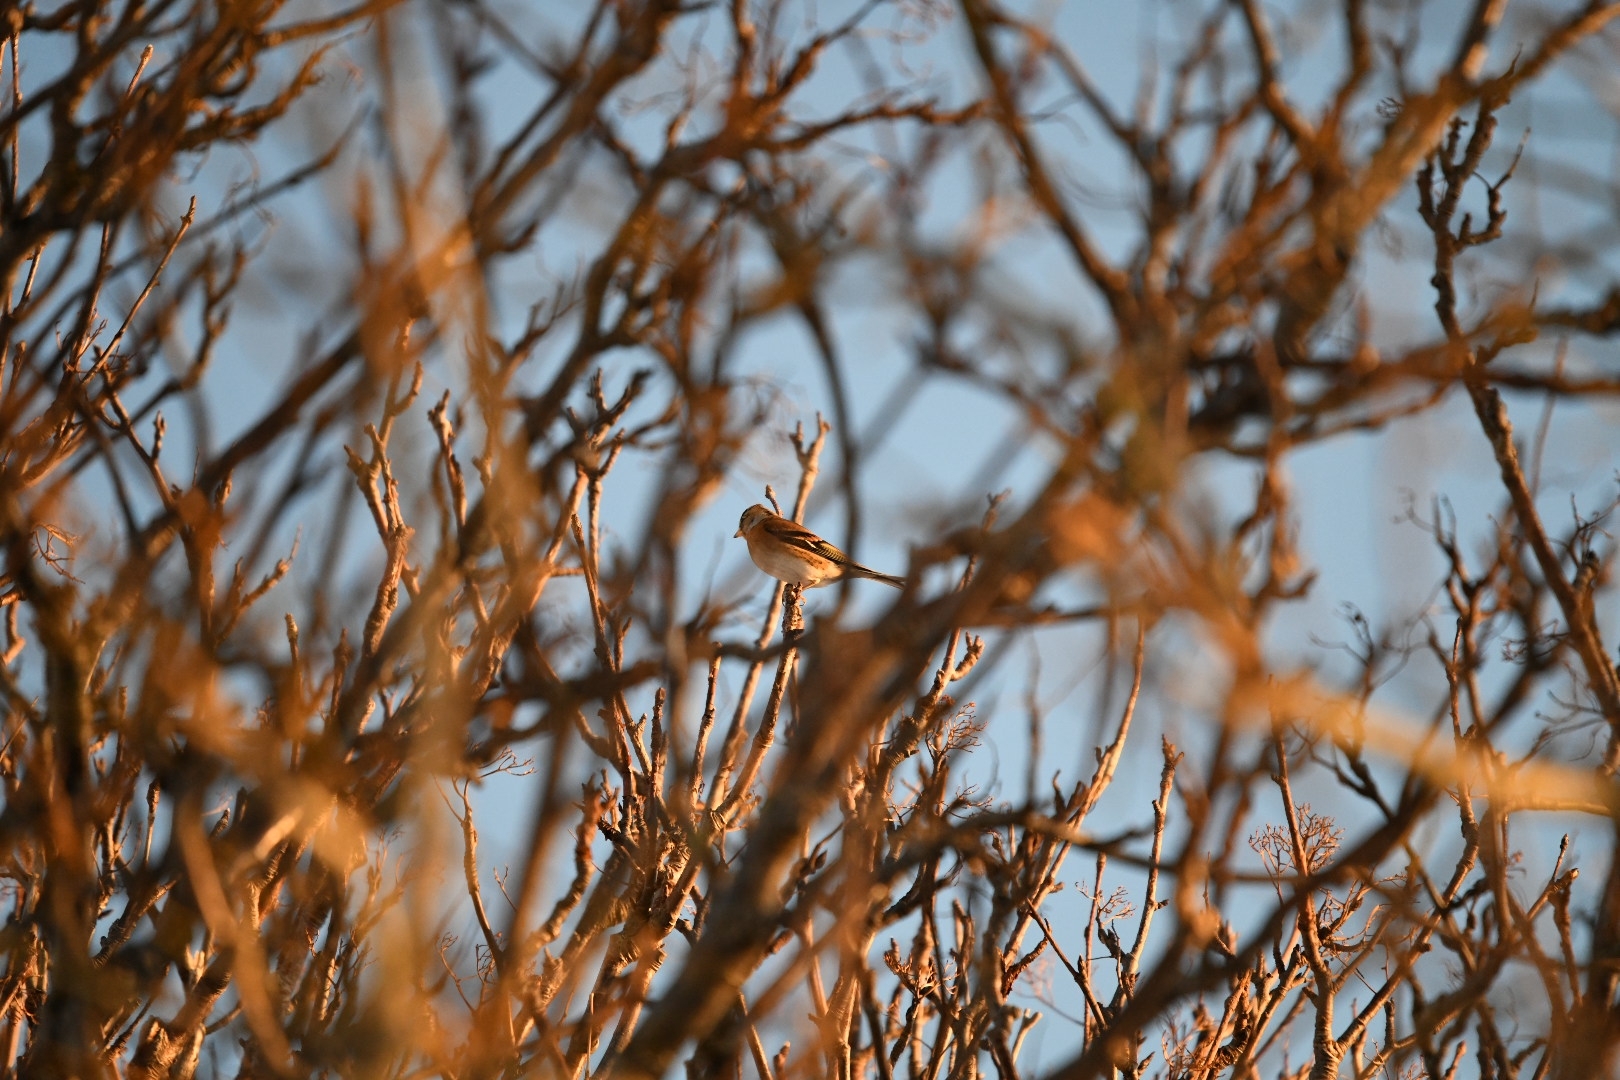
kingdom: Animalia
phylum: Chordata
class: Aves
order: Passeriformes
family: Fringillidae
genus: Fringilla
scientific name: Fringilla montifringilla
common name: Brambling
